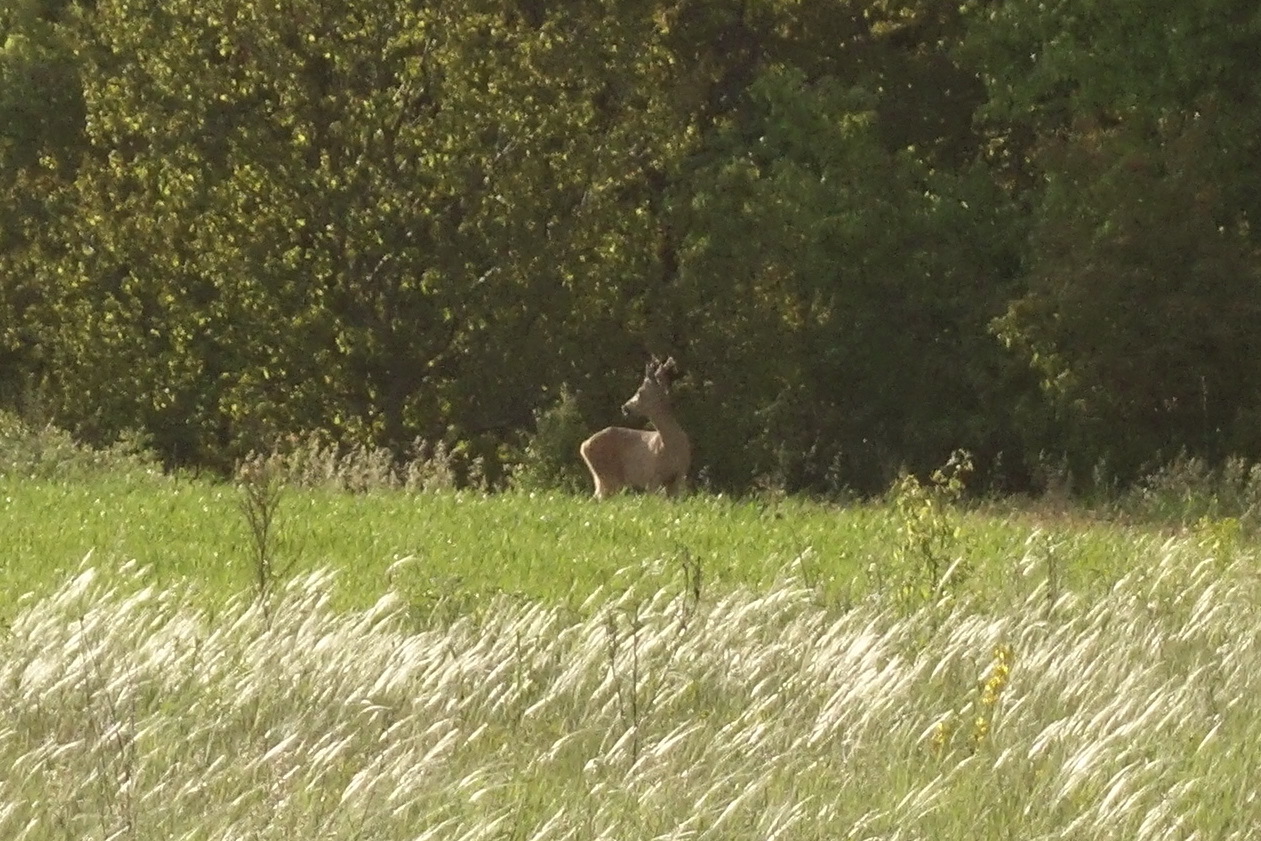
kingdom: Animalia
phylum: Chordata
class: Mammalia
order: Artiodactyla
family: Cervidae
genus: Capreolus
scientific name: Capreolus capreolus
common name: Western roe deer
